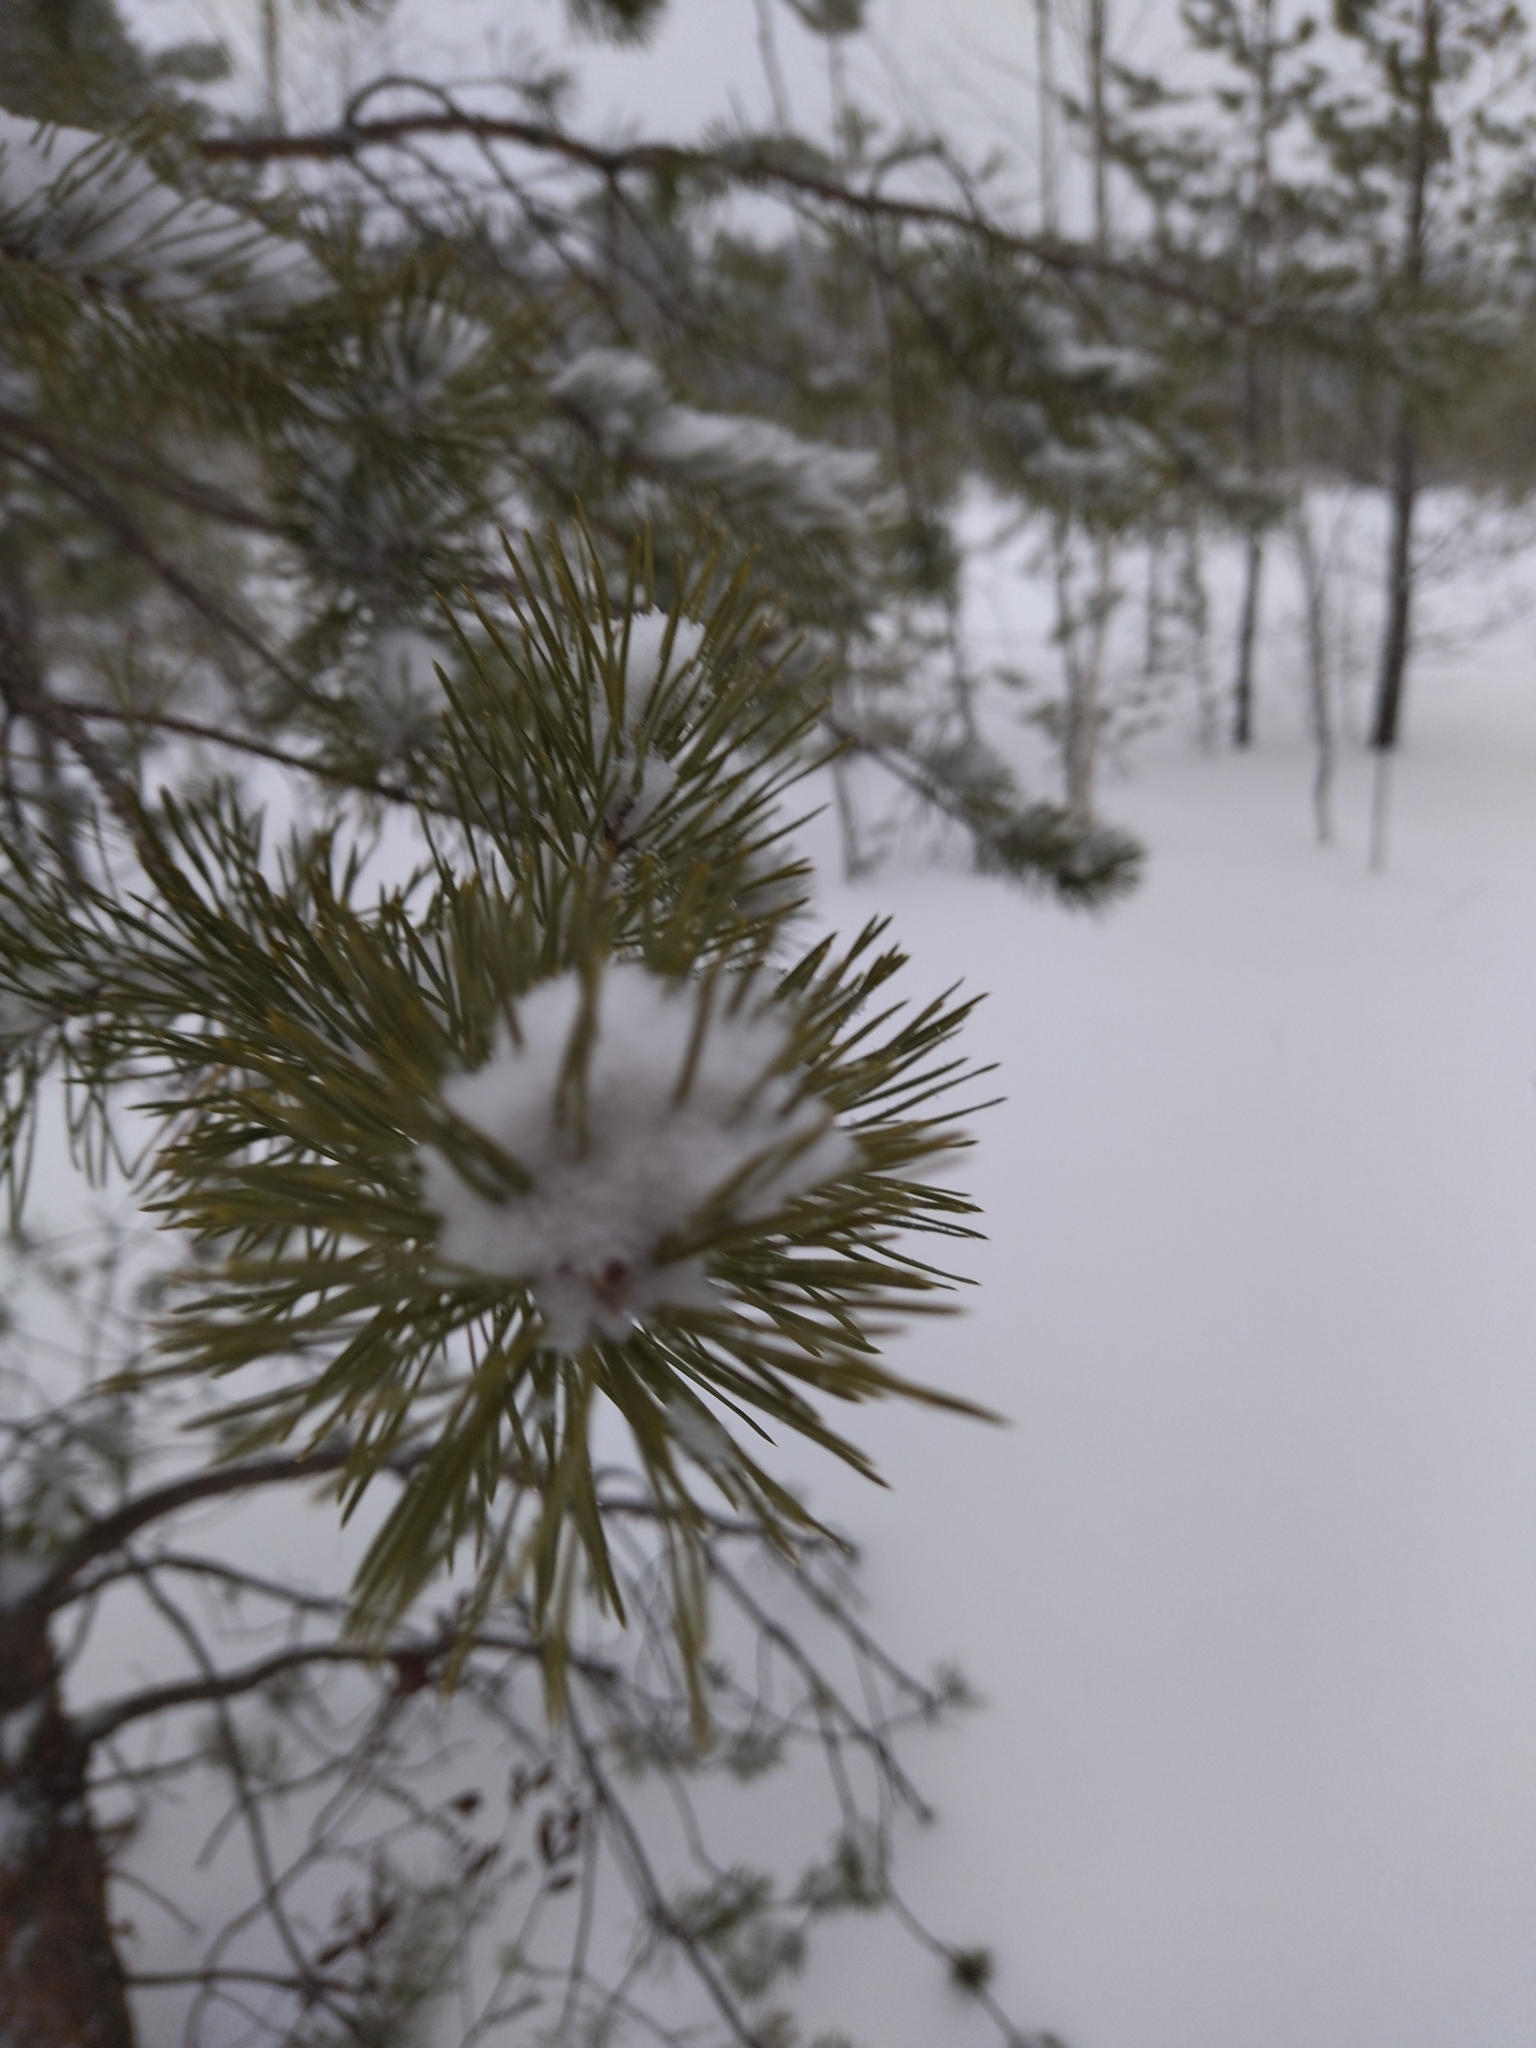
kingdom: Plantae
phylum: Tracheophyta
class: Pinopsida
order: Pinales
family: Pinaceae
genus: Pinus
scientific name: Pinus sylvestris
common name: Scots pine
